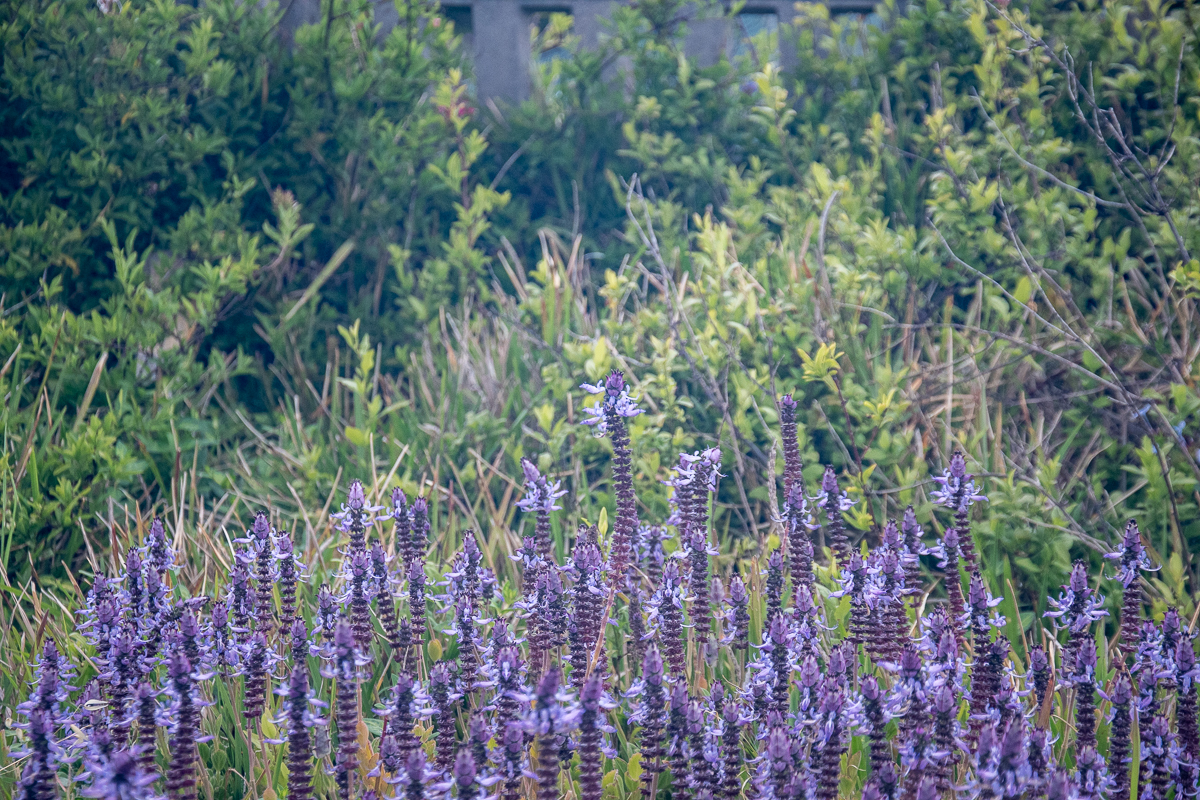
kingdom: Plantae
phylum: Tracheophyta
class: Magnoliopsida
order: Lamiales
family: Lamiaceae
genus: Coleus
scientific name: Coleus neochilus
